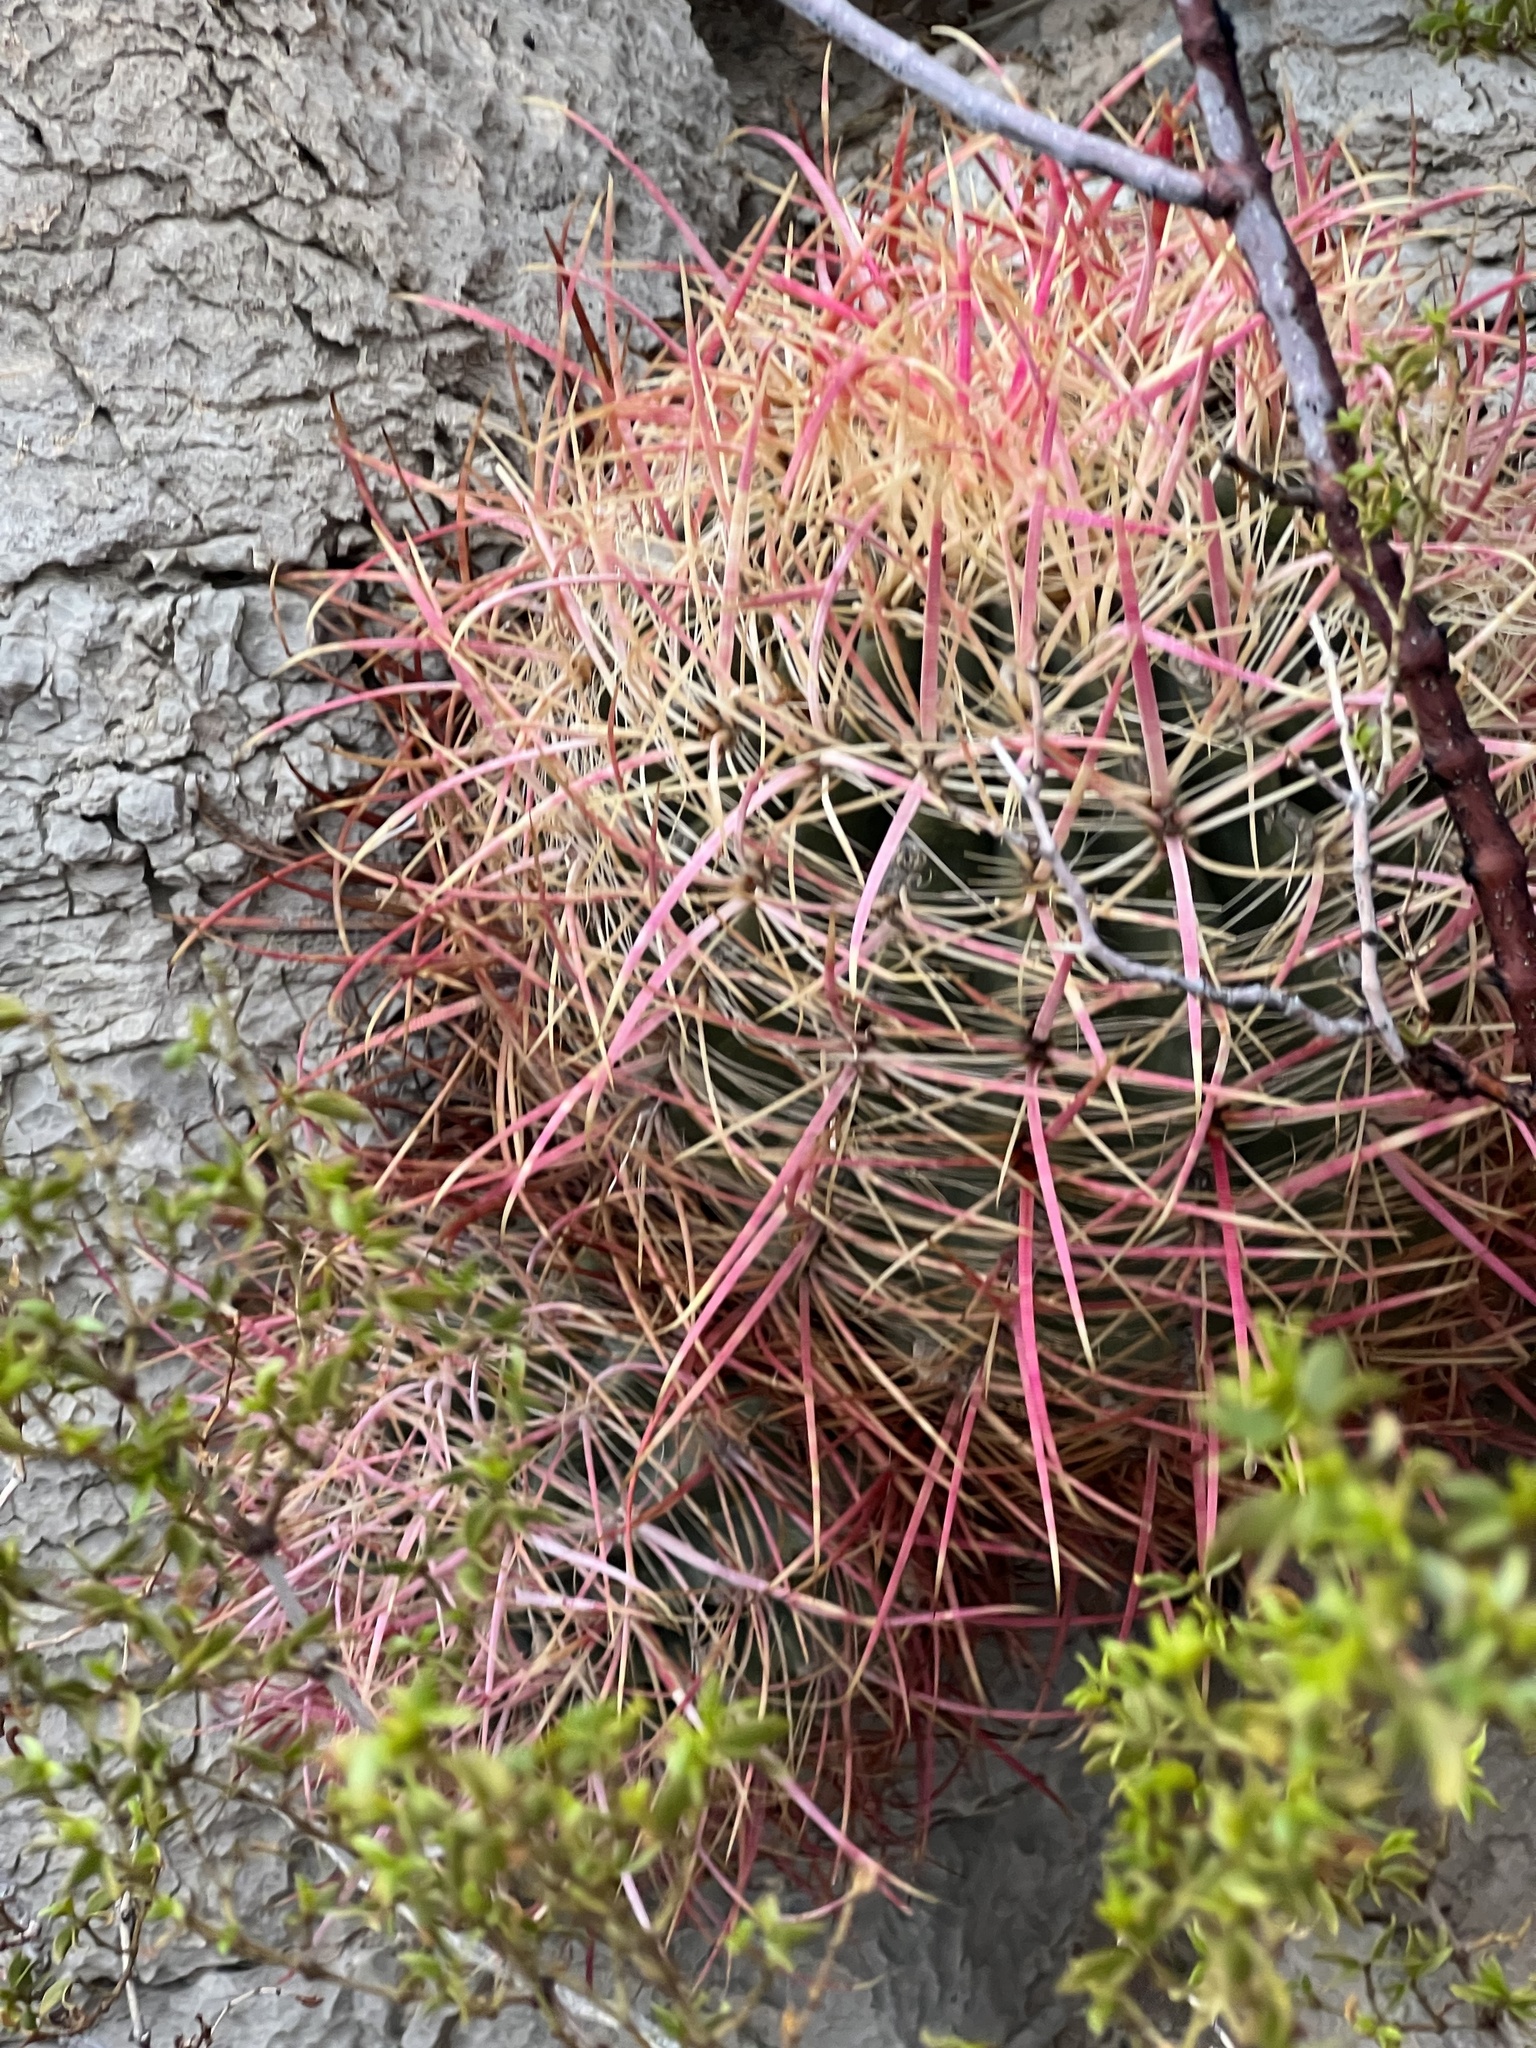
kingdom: Plantae
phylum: Tracheophyta
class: Magnoliopsida
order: Caryophyllales
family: Cactaceae
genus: Ferocactus
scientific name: Ferocactus cylindraceus
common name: California barrel cactus
